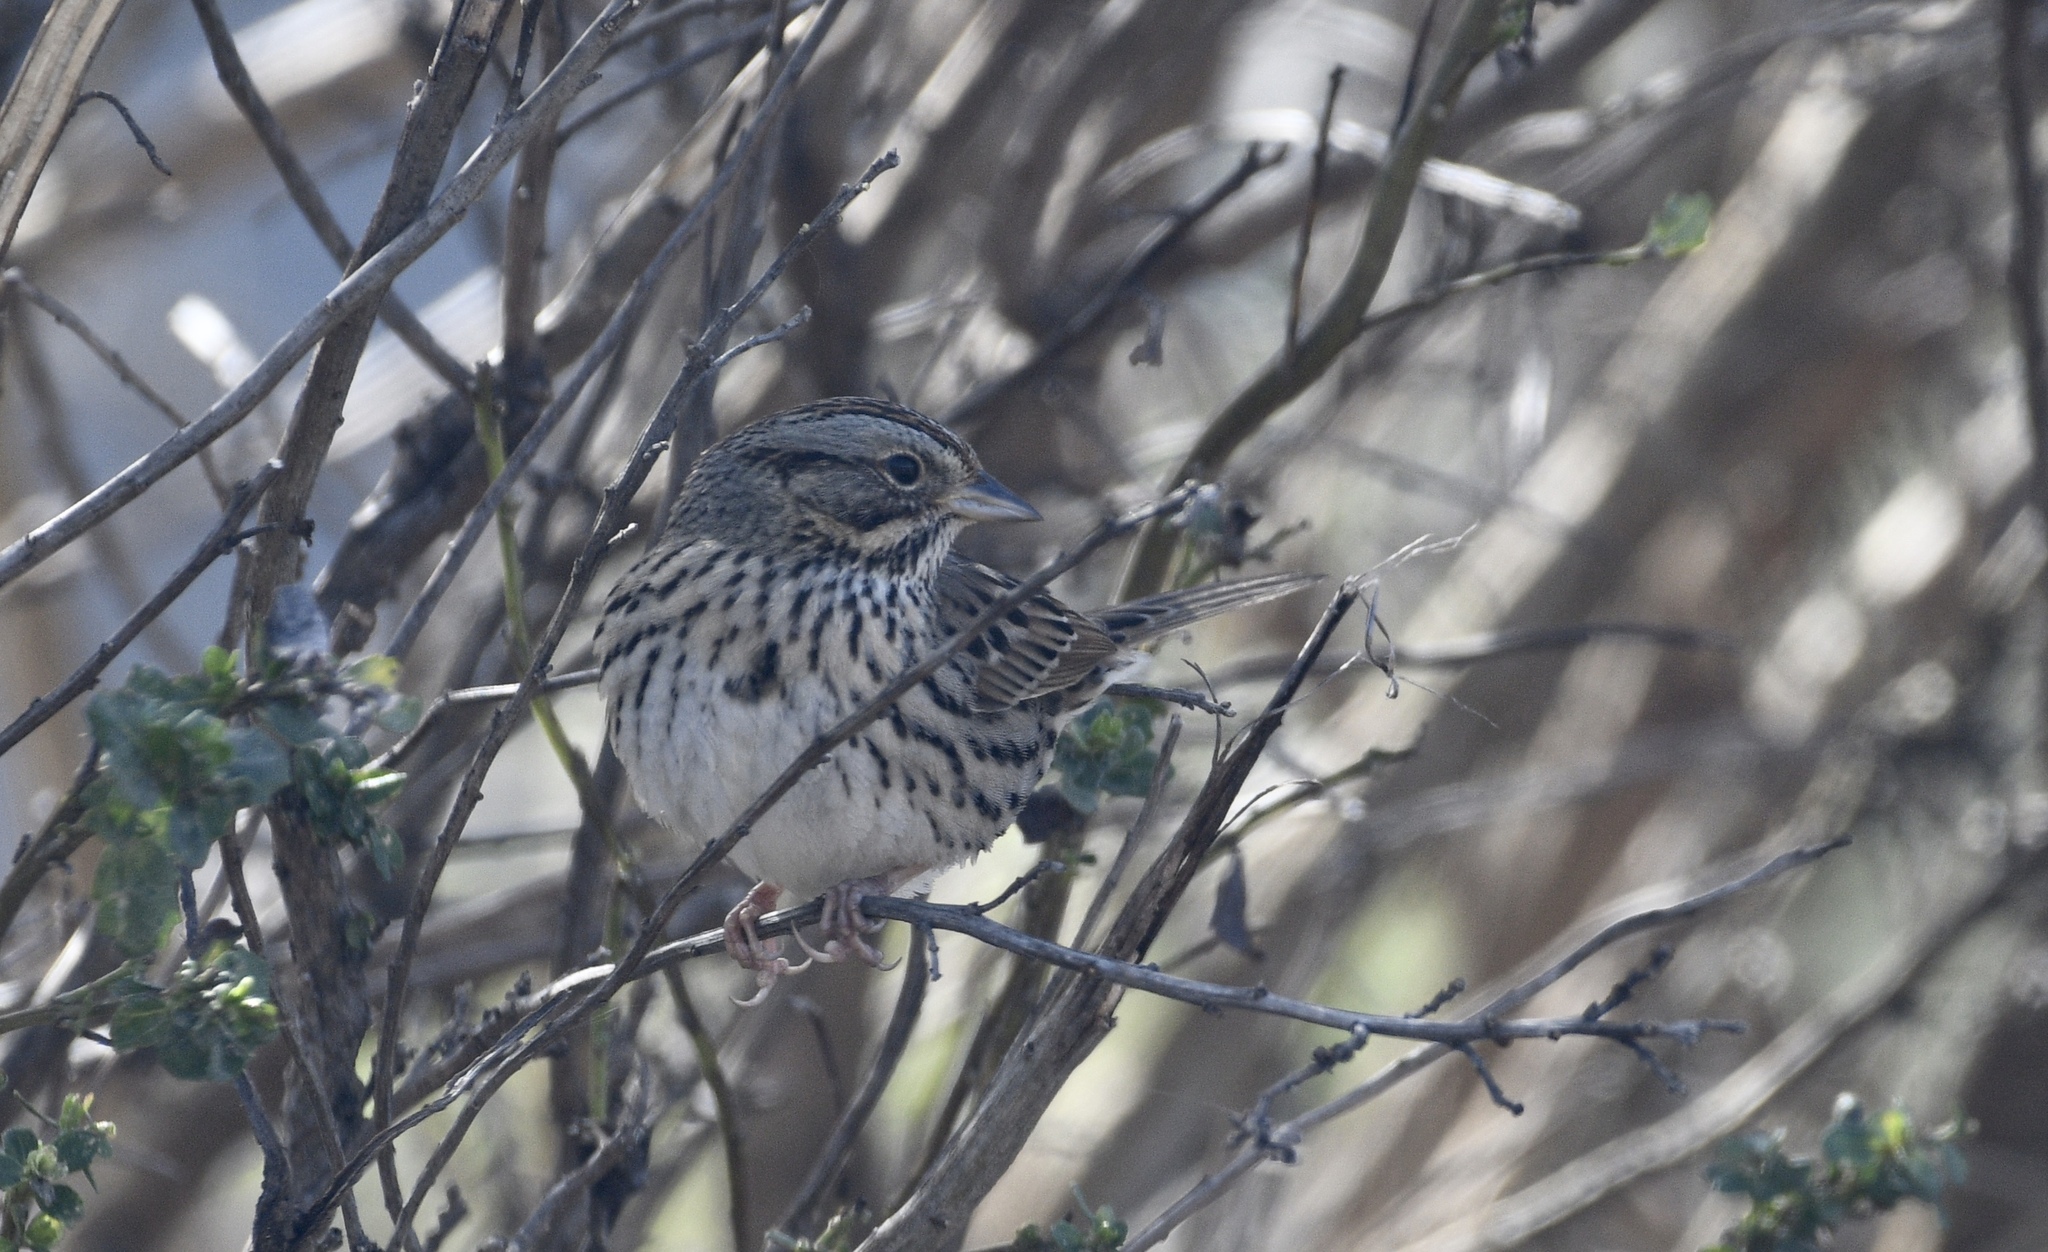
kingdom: Animalia
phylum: Chordata
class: Aves
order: Passeriformes
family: Passerellidae
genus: Melospiza
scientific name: Melospiza lincolnii
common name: Lincoln's sparrow
